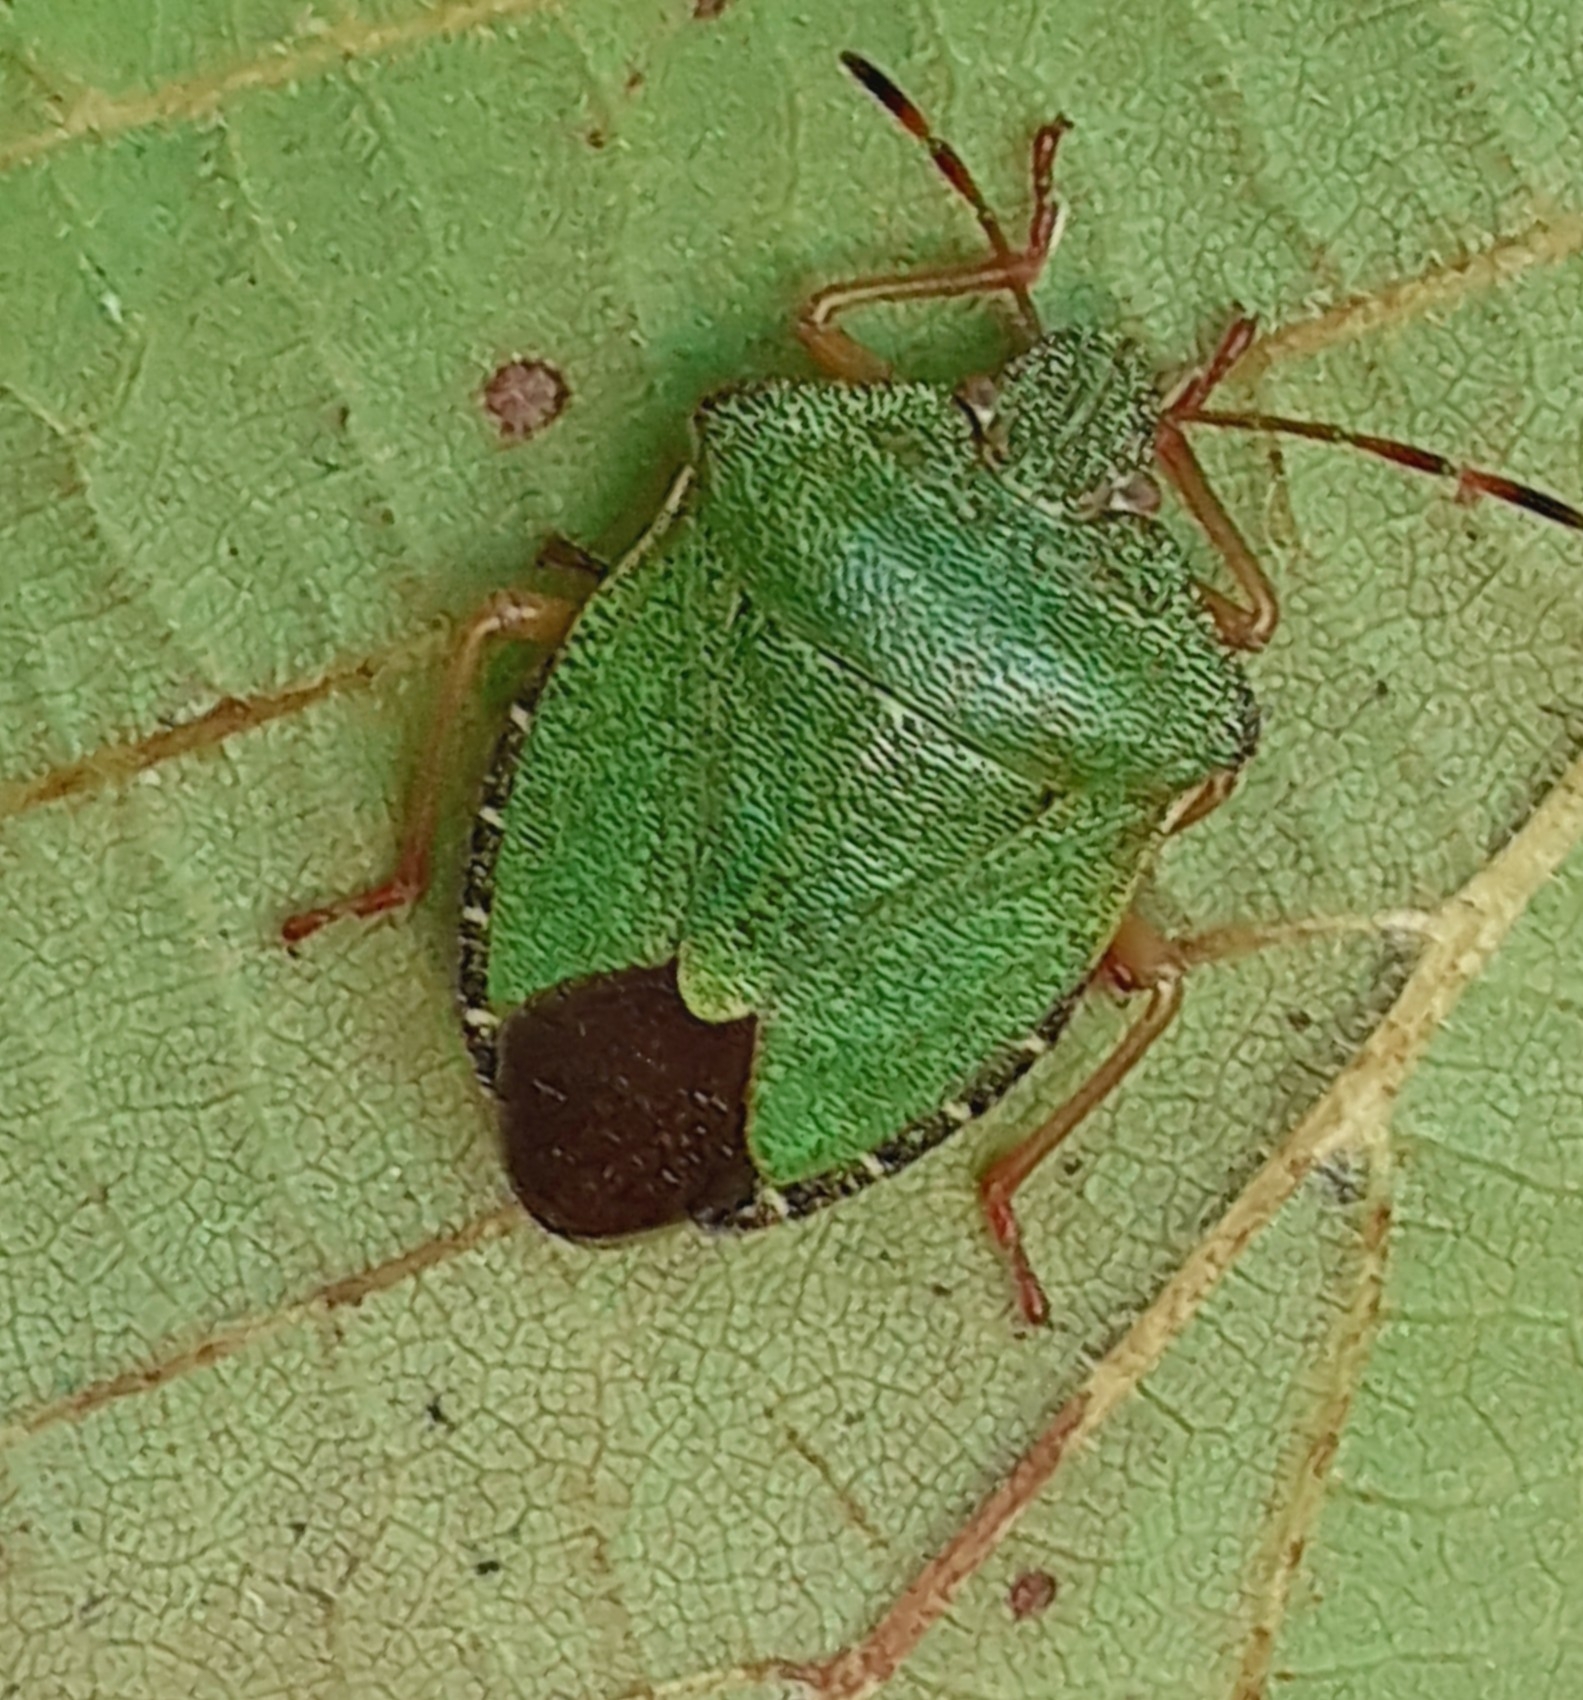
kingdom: Animalia
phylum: Arthropoda
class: Insecta
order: Hemiptera
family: Pentatomidae
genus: Palomena
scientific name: Palomena prasina
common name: Green shieldbug
